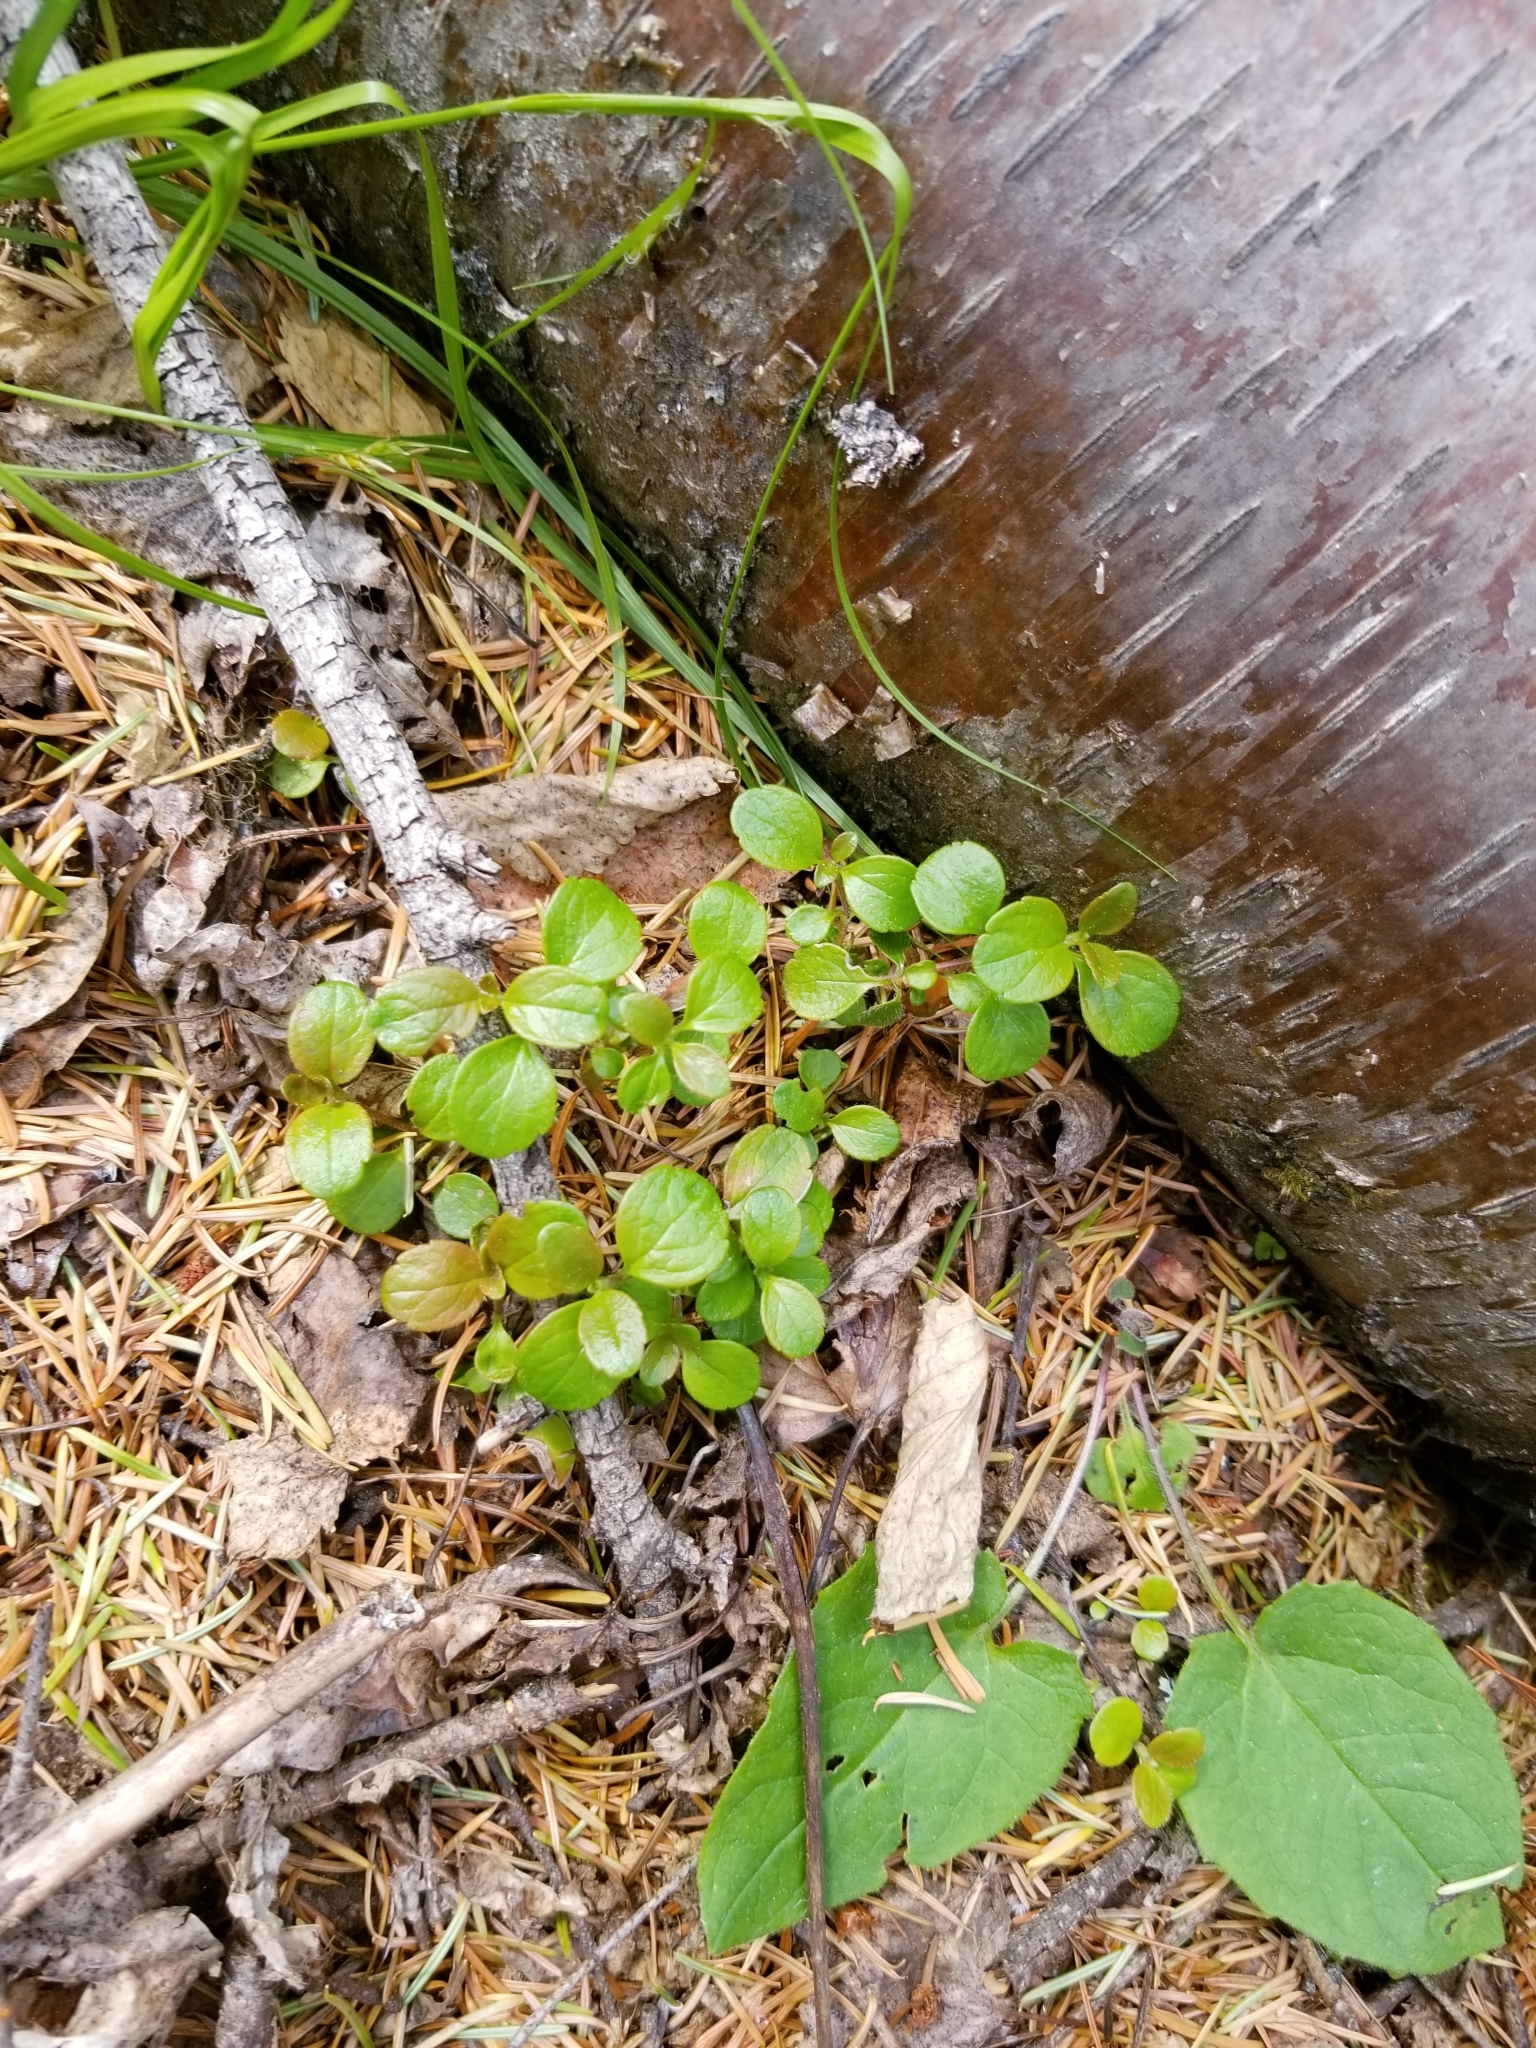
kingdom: Plantae
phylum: Tracheophyta
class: Magnoliopsida
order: Dipsacales
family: Caprifoliaceae
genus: Linnaea
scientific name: Linnaea borealis
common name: Twinflower
